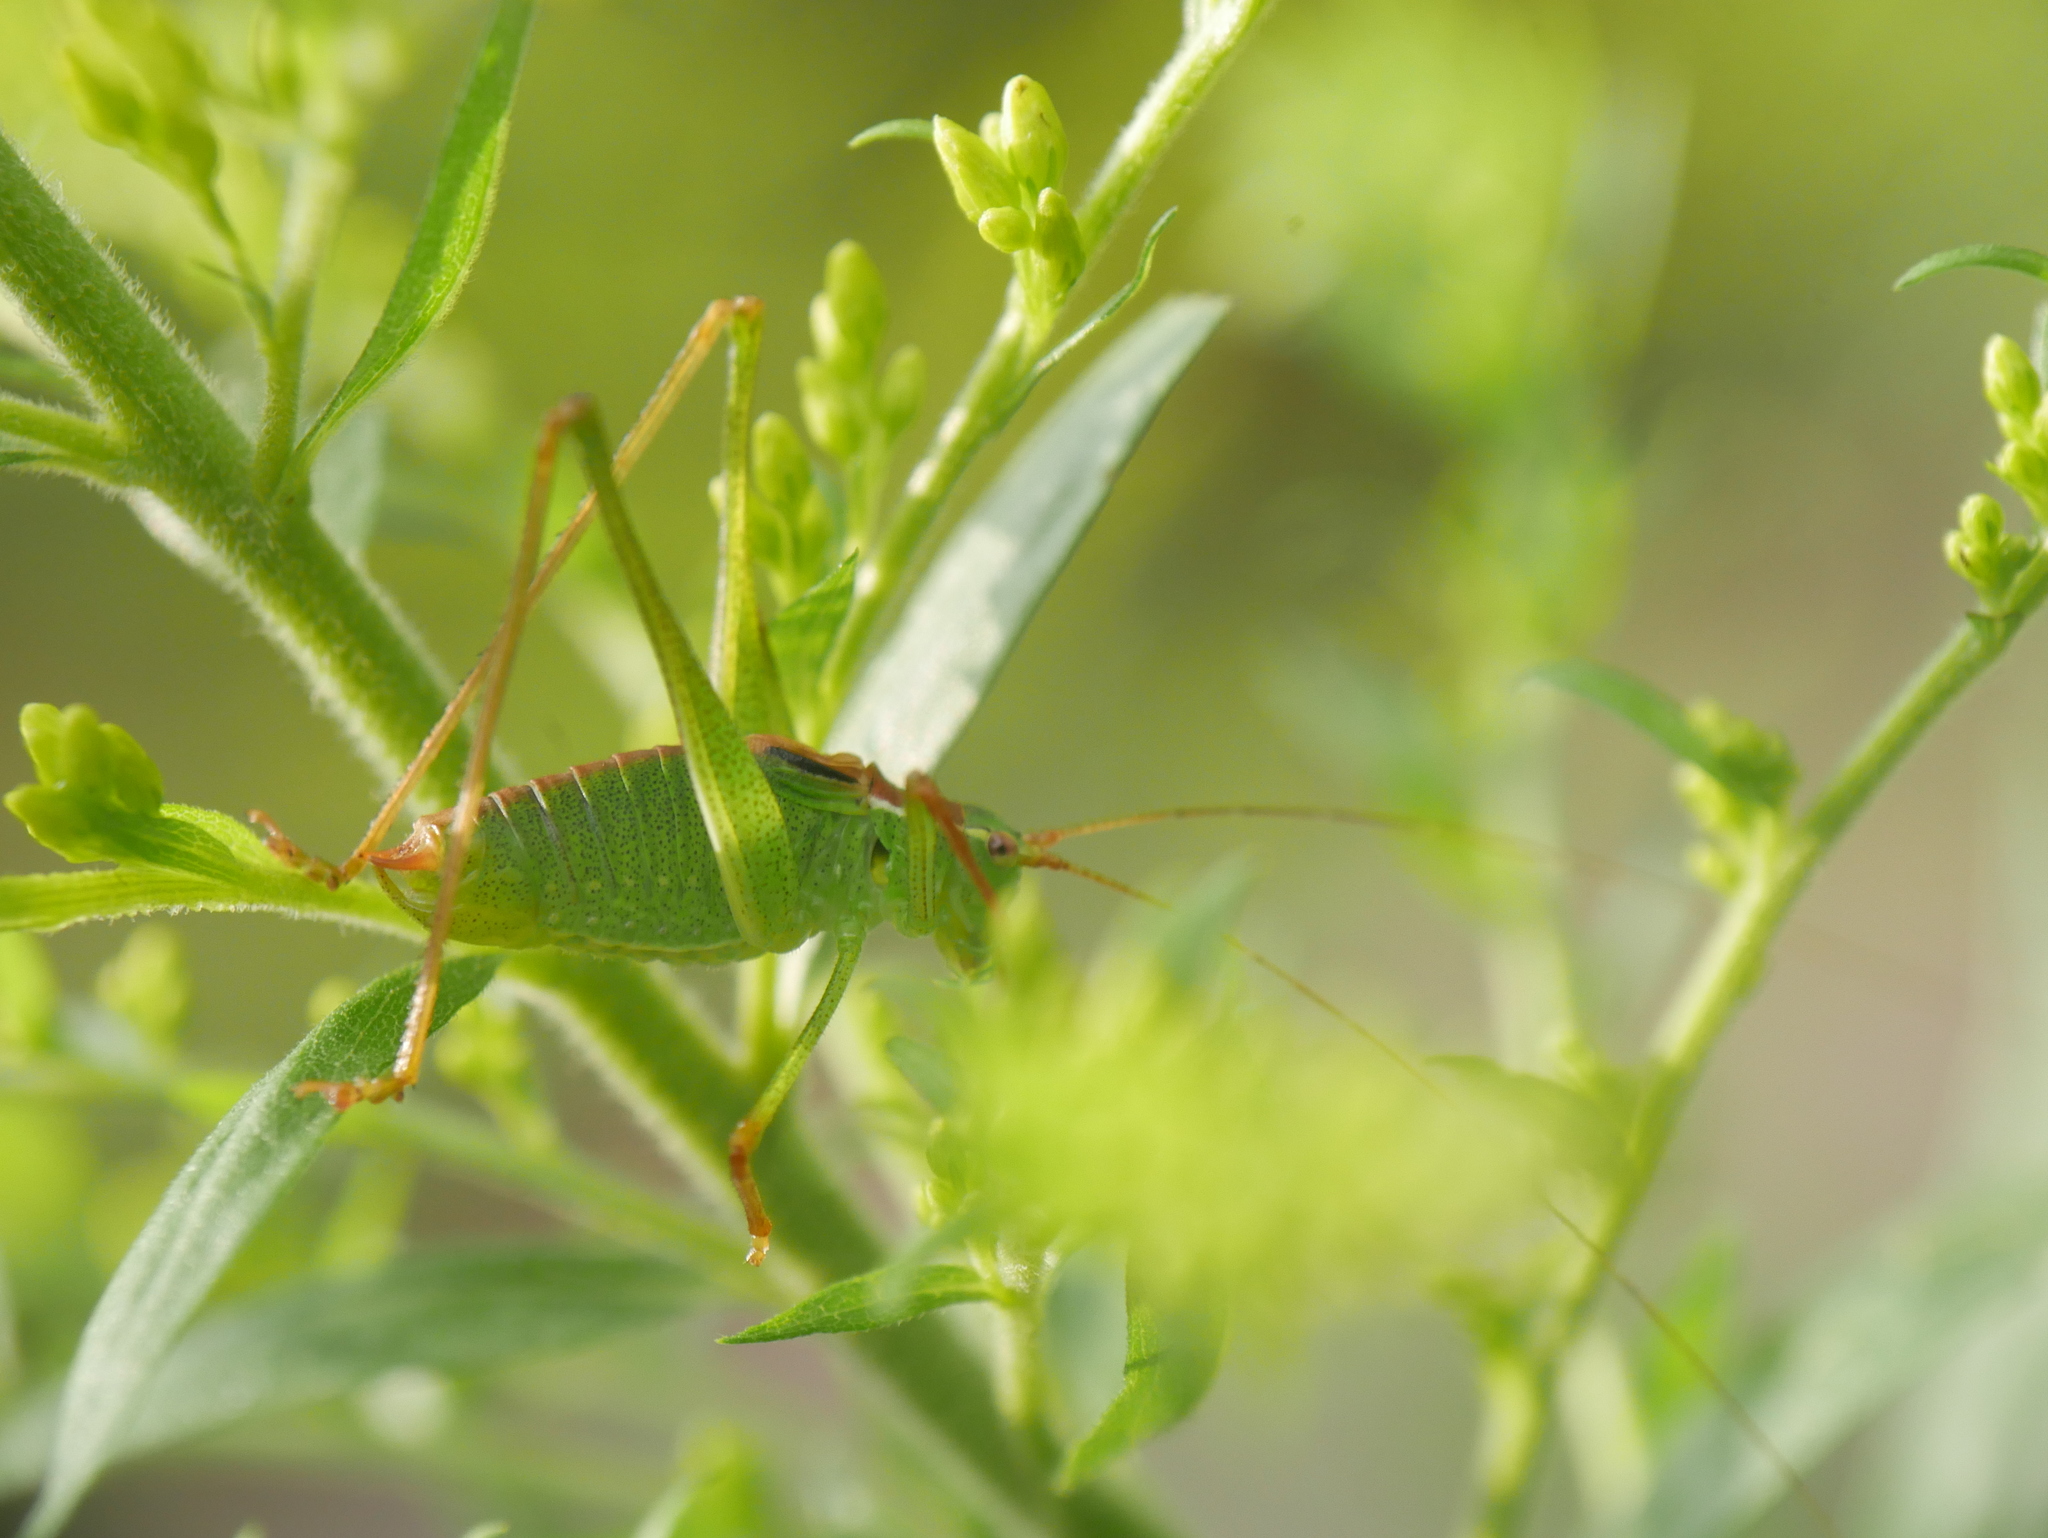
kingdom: Animalia
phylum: Arthropoda
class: Insecta
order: Orthoptera
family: Tettigoniidae
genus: Leptophyes
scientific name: Leptophyes punctatissima
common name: Speckled bush-cricket
